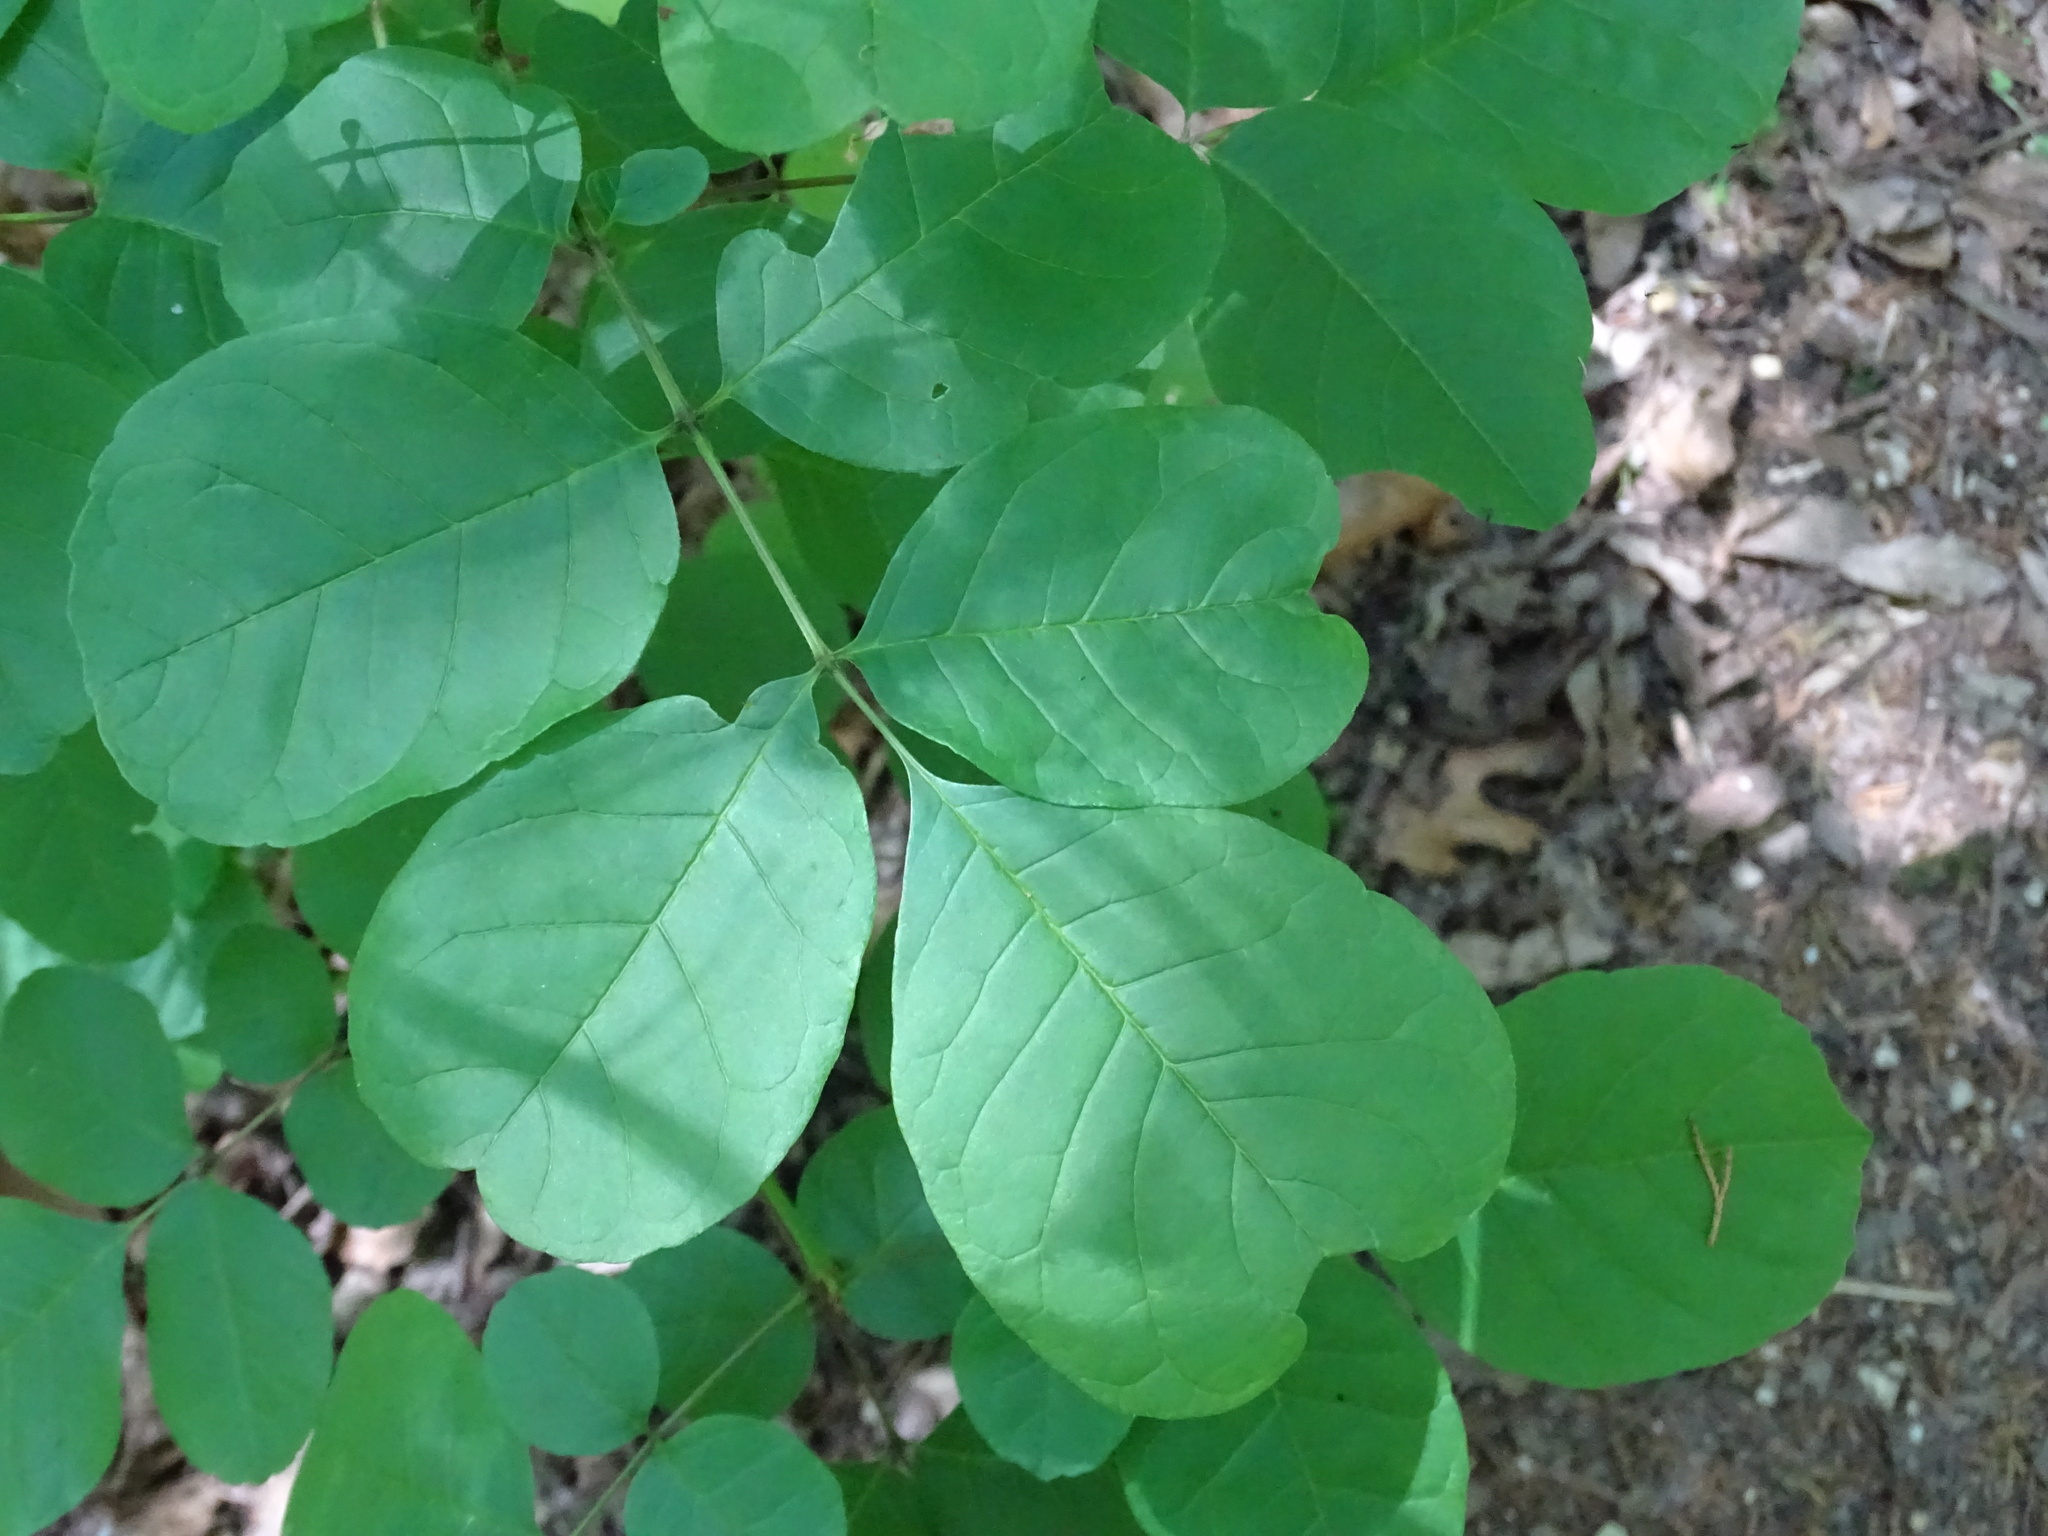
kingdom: Plantae
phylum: Tracheophyta
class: Magnoliopsida
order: Lamiales
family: Oleaceae
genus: Fraxinus
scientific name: Fraxinus albicans
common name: Texas ash
